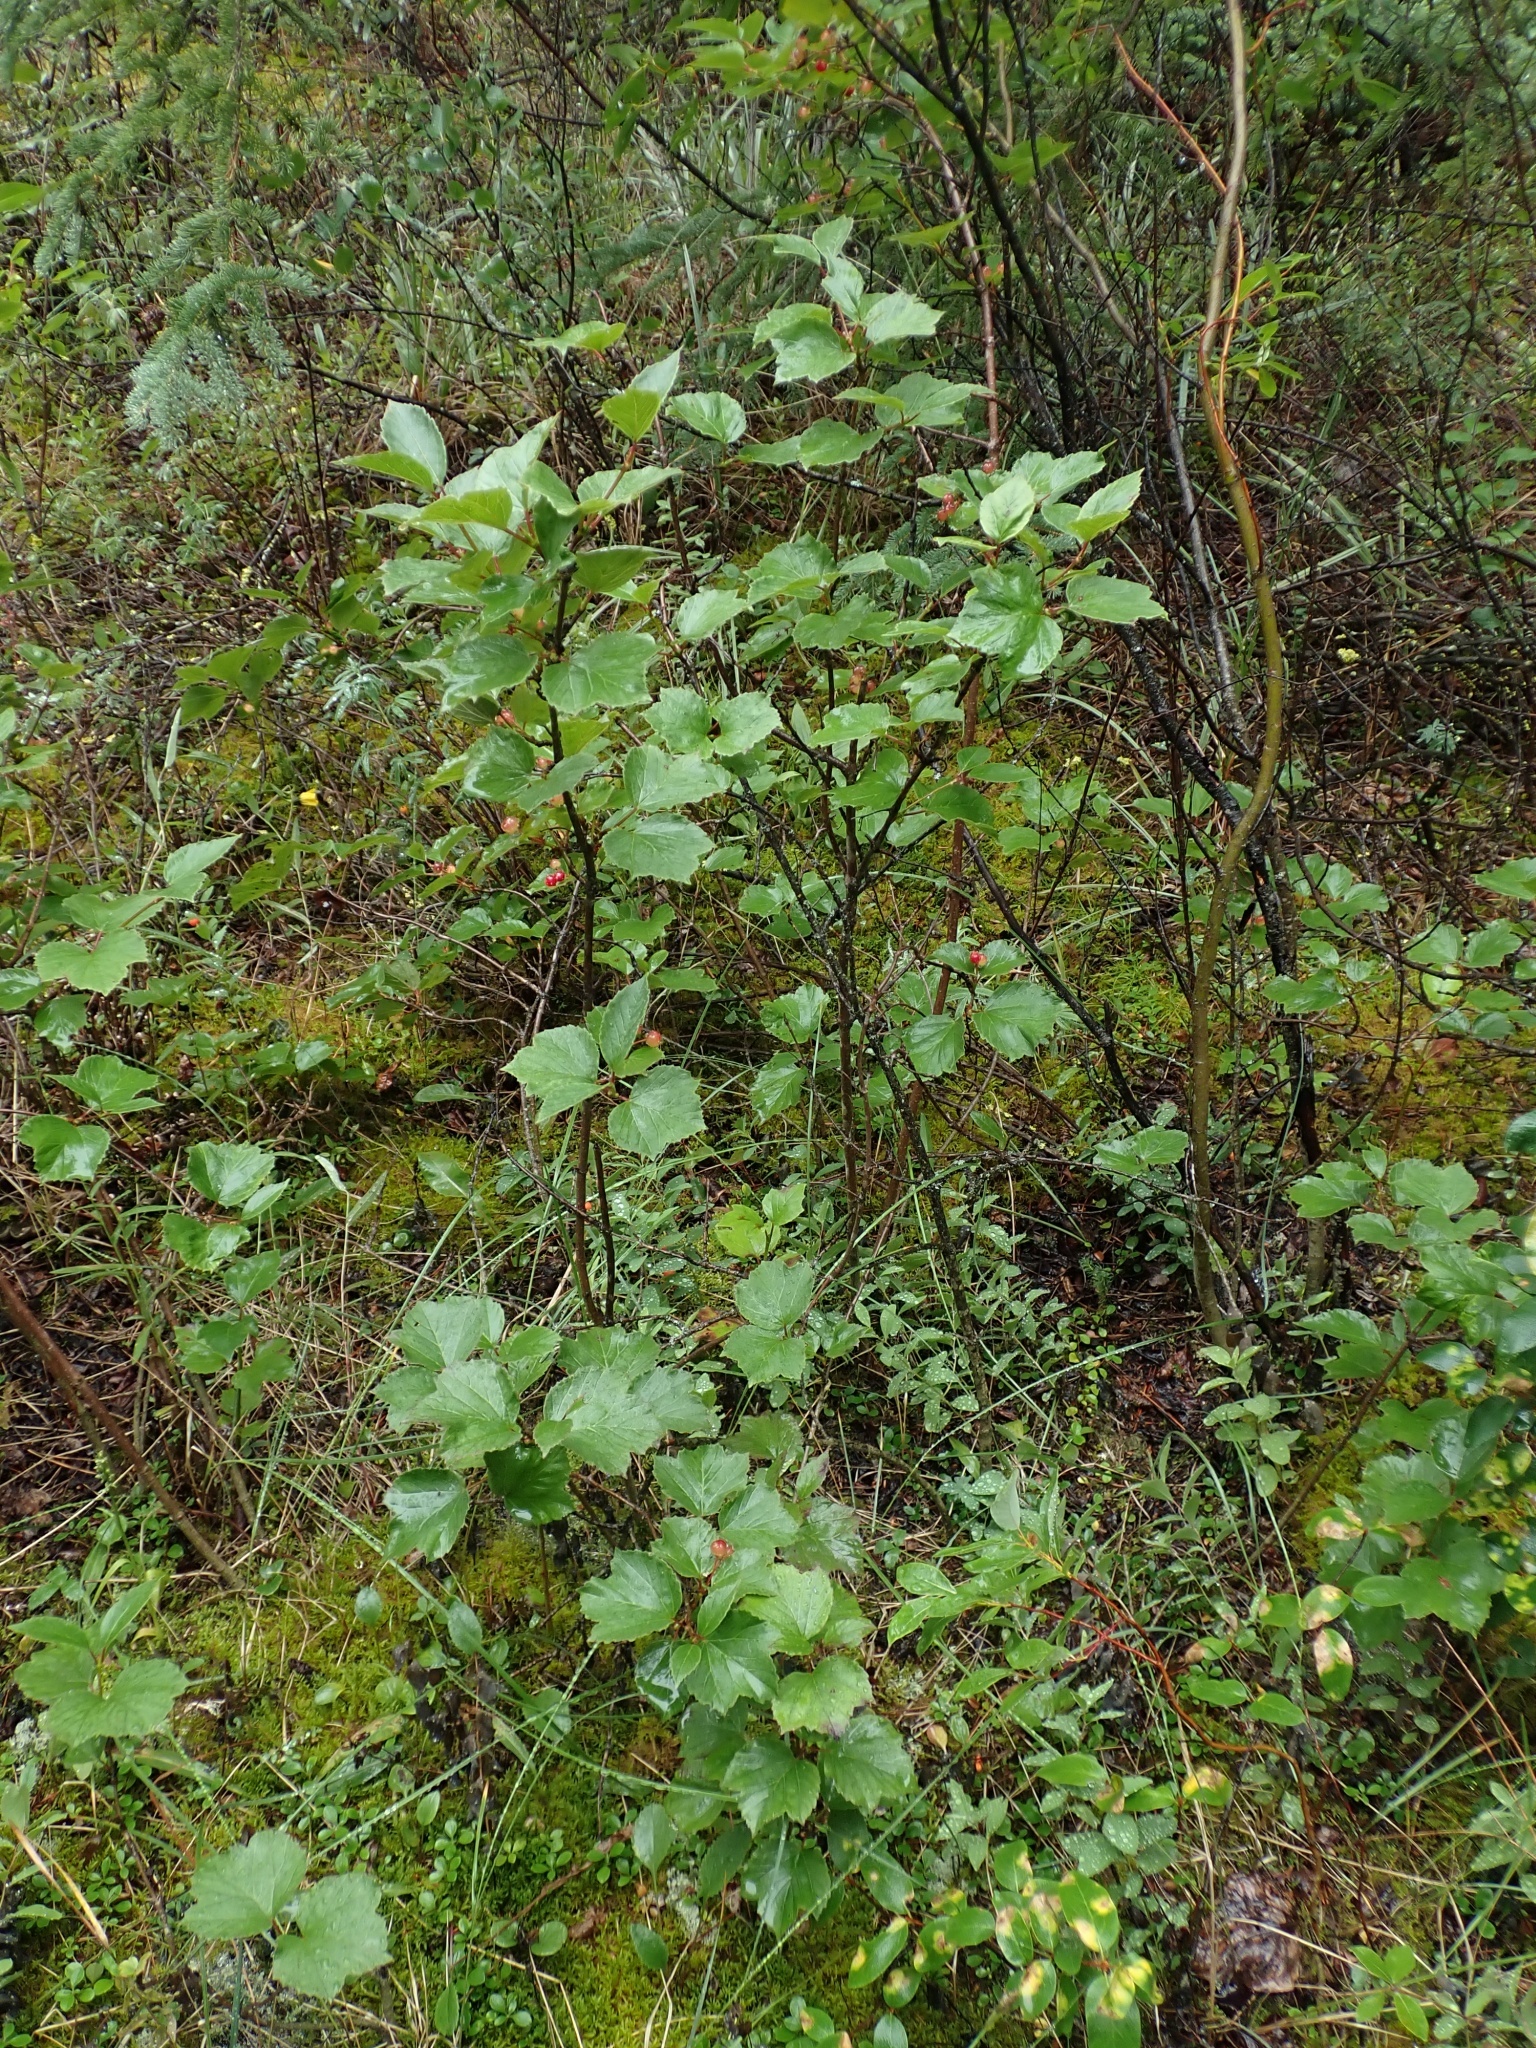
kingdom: Plantae
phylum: Tracheophyta
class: Magnoliopsida
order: Dipsacales
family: Viburnaceae
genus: Viburnum
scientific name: Viburnum edule
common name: Mooseberry
